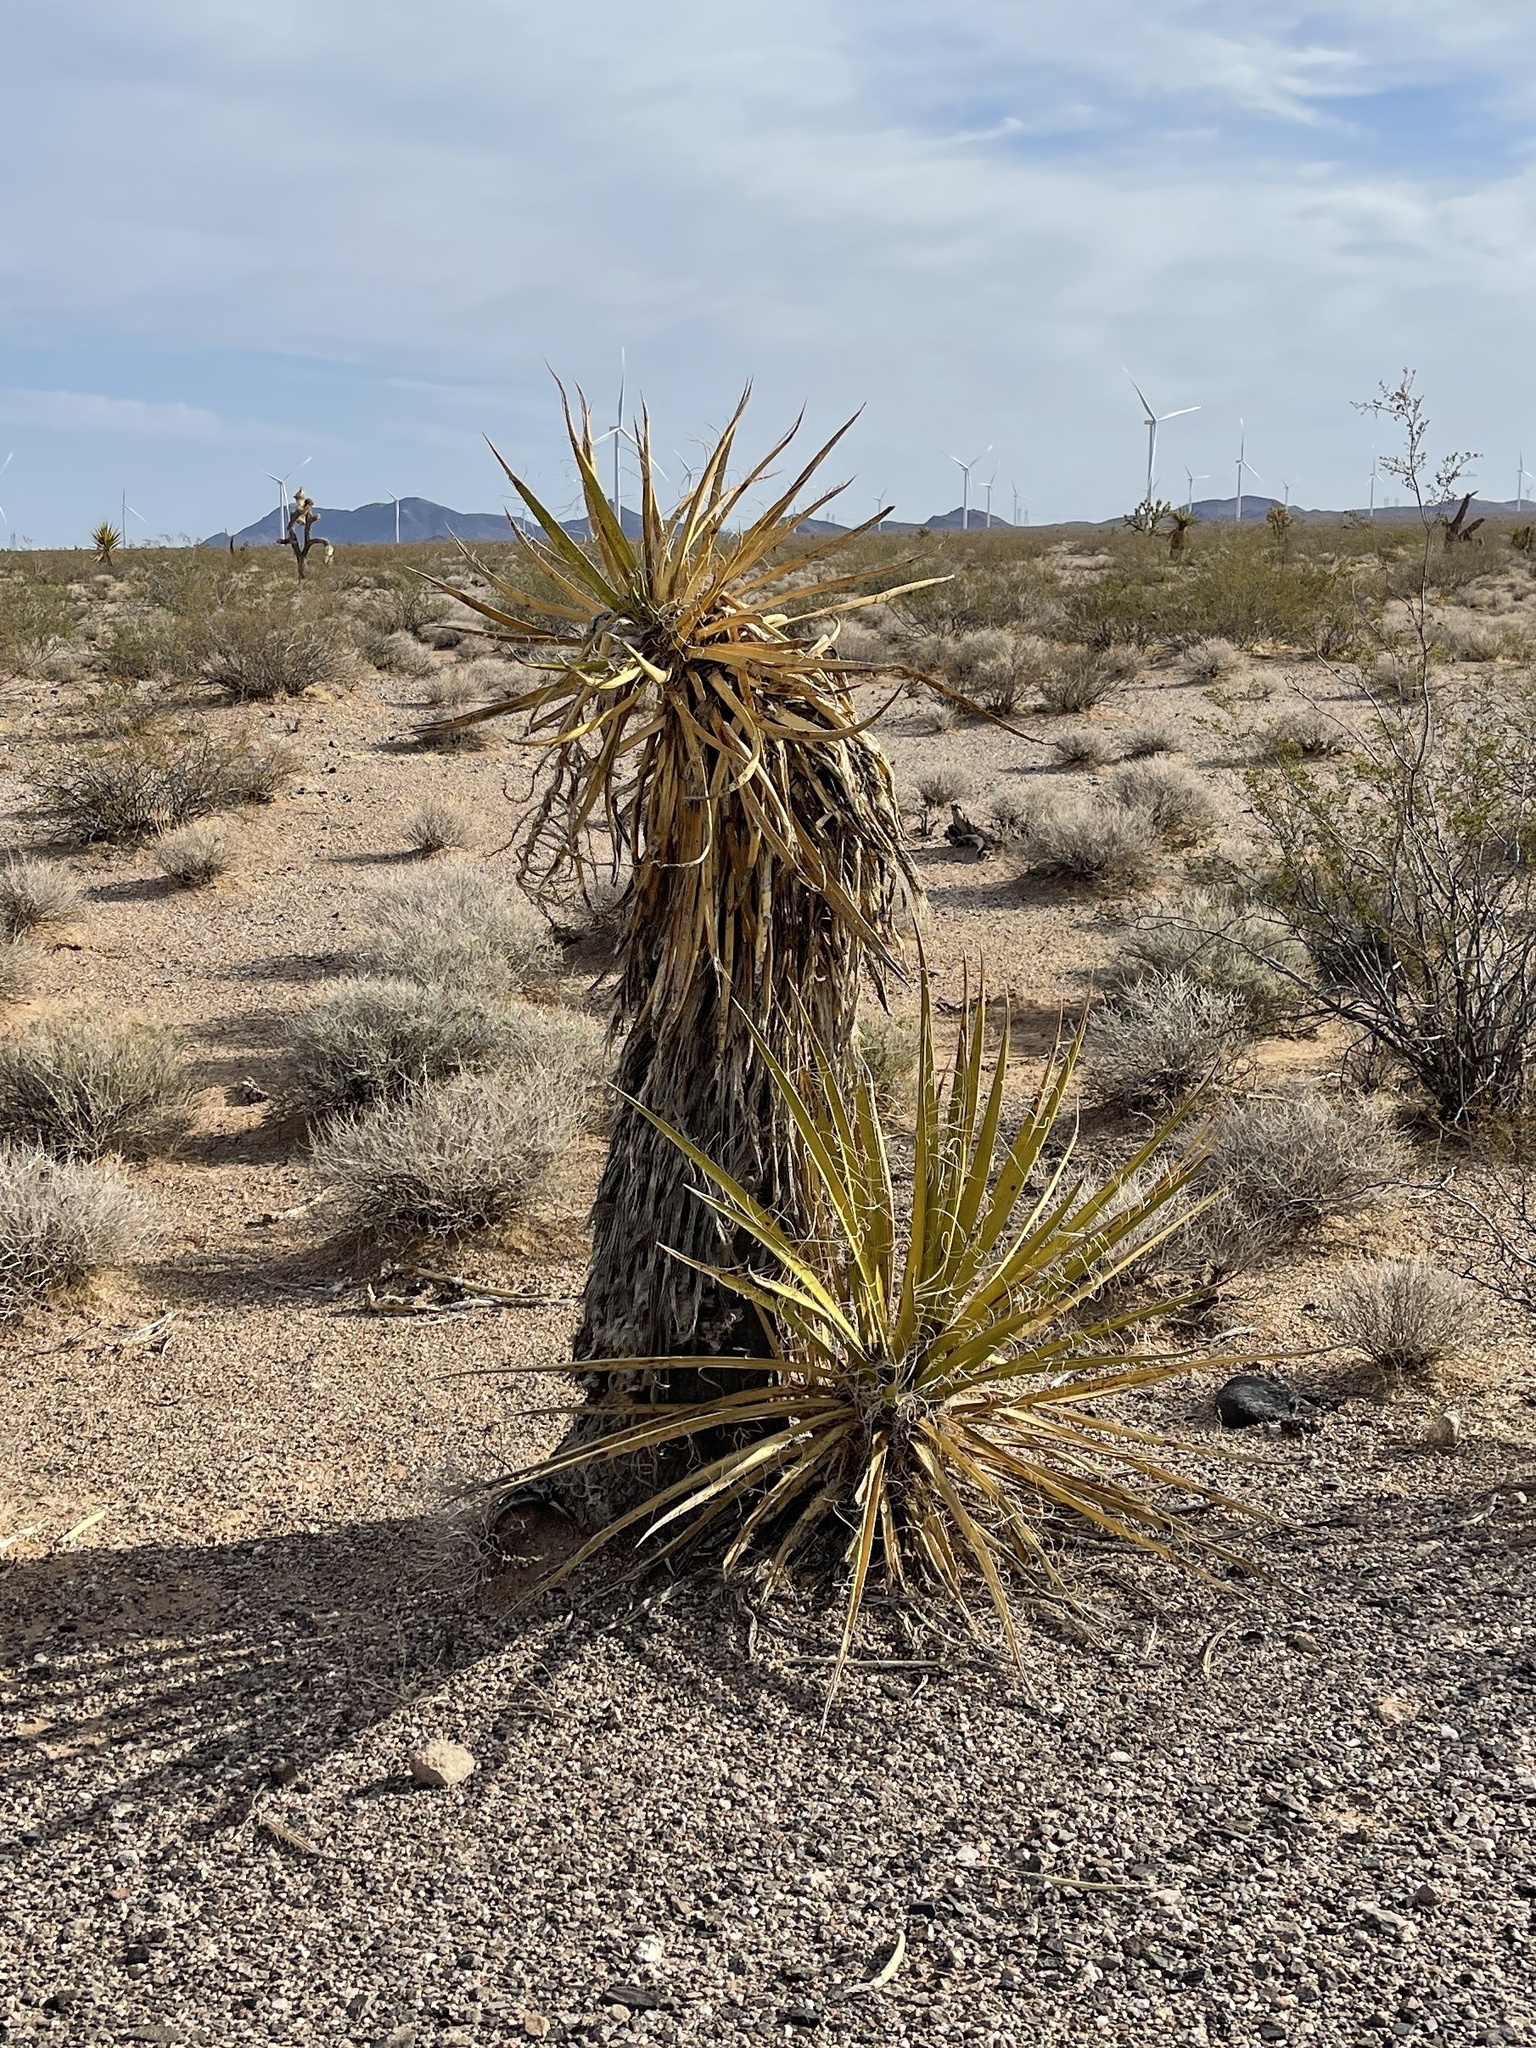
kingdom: Plantae
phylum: Tracheophyta
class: Liliopsida
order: Asparagales
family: Asparagaceae
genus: Yucca
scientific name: Yucca schidigera
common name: Mojave yucca
